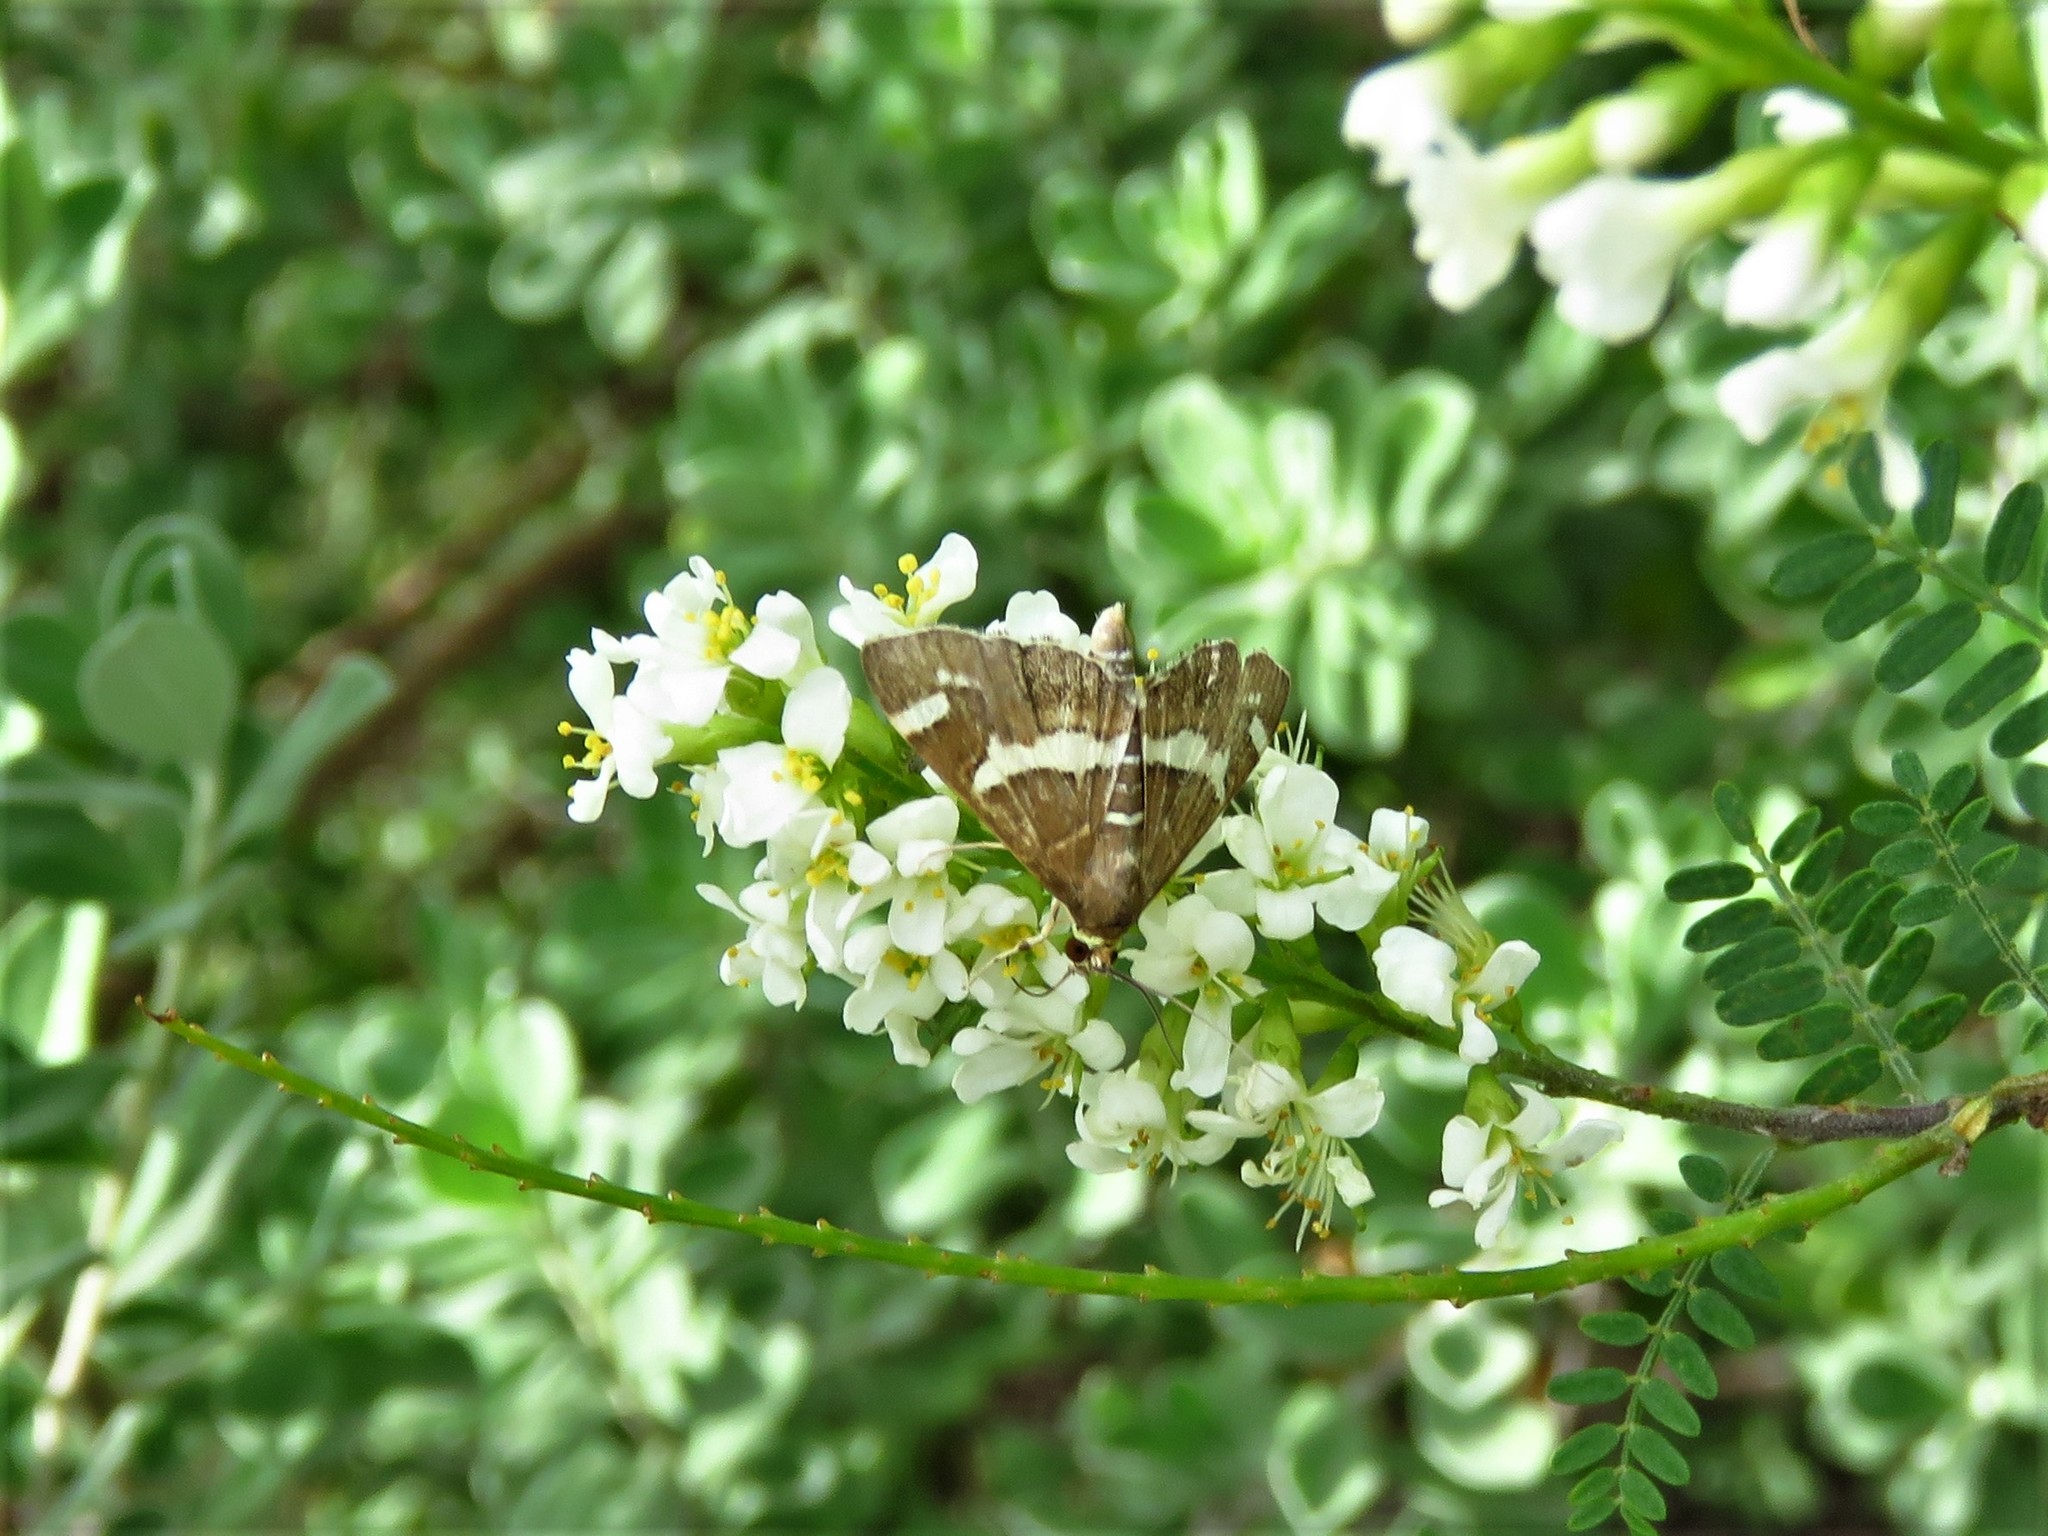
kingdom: Animalia
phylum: Arthropoda
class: Insecta
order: Lepidoptera
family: Crambidae
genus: Spoladea
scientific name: Spoladea recurvalis
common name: Beet webworm moth
